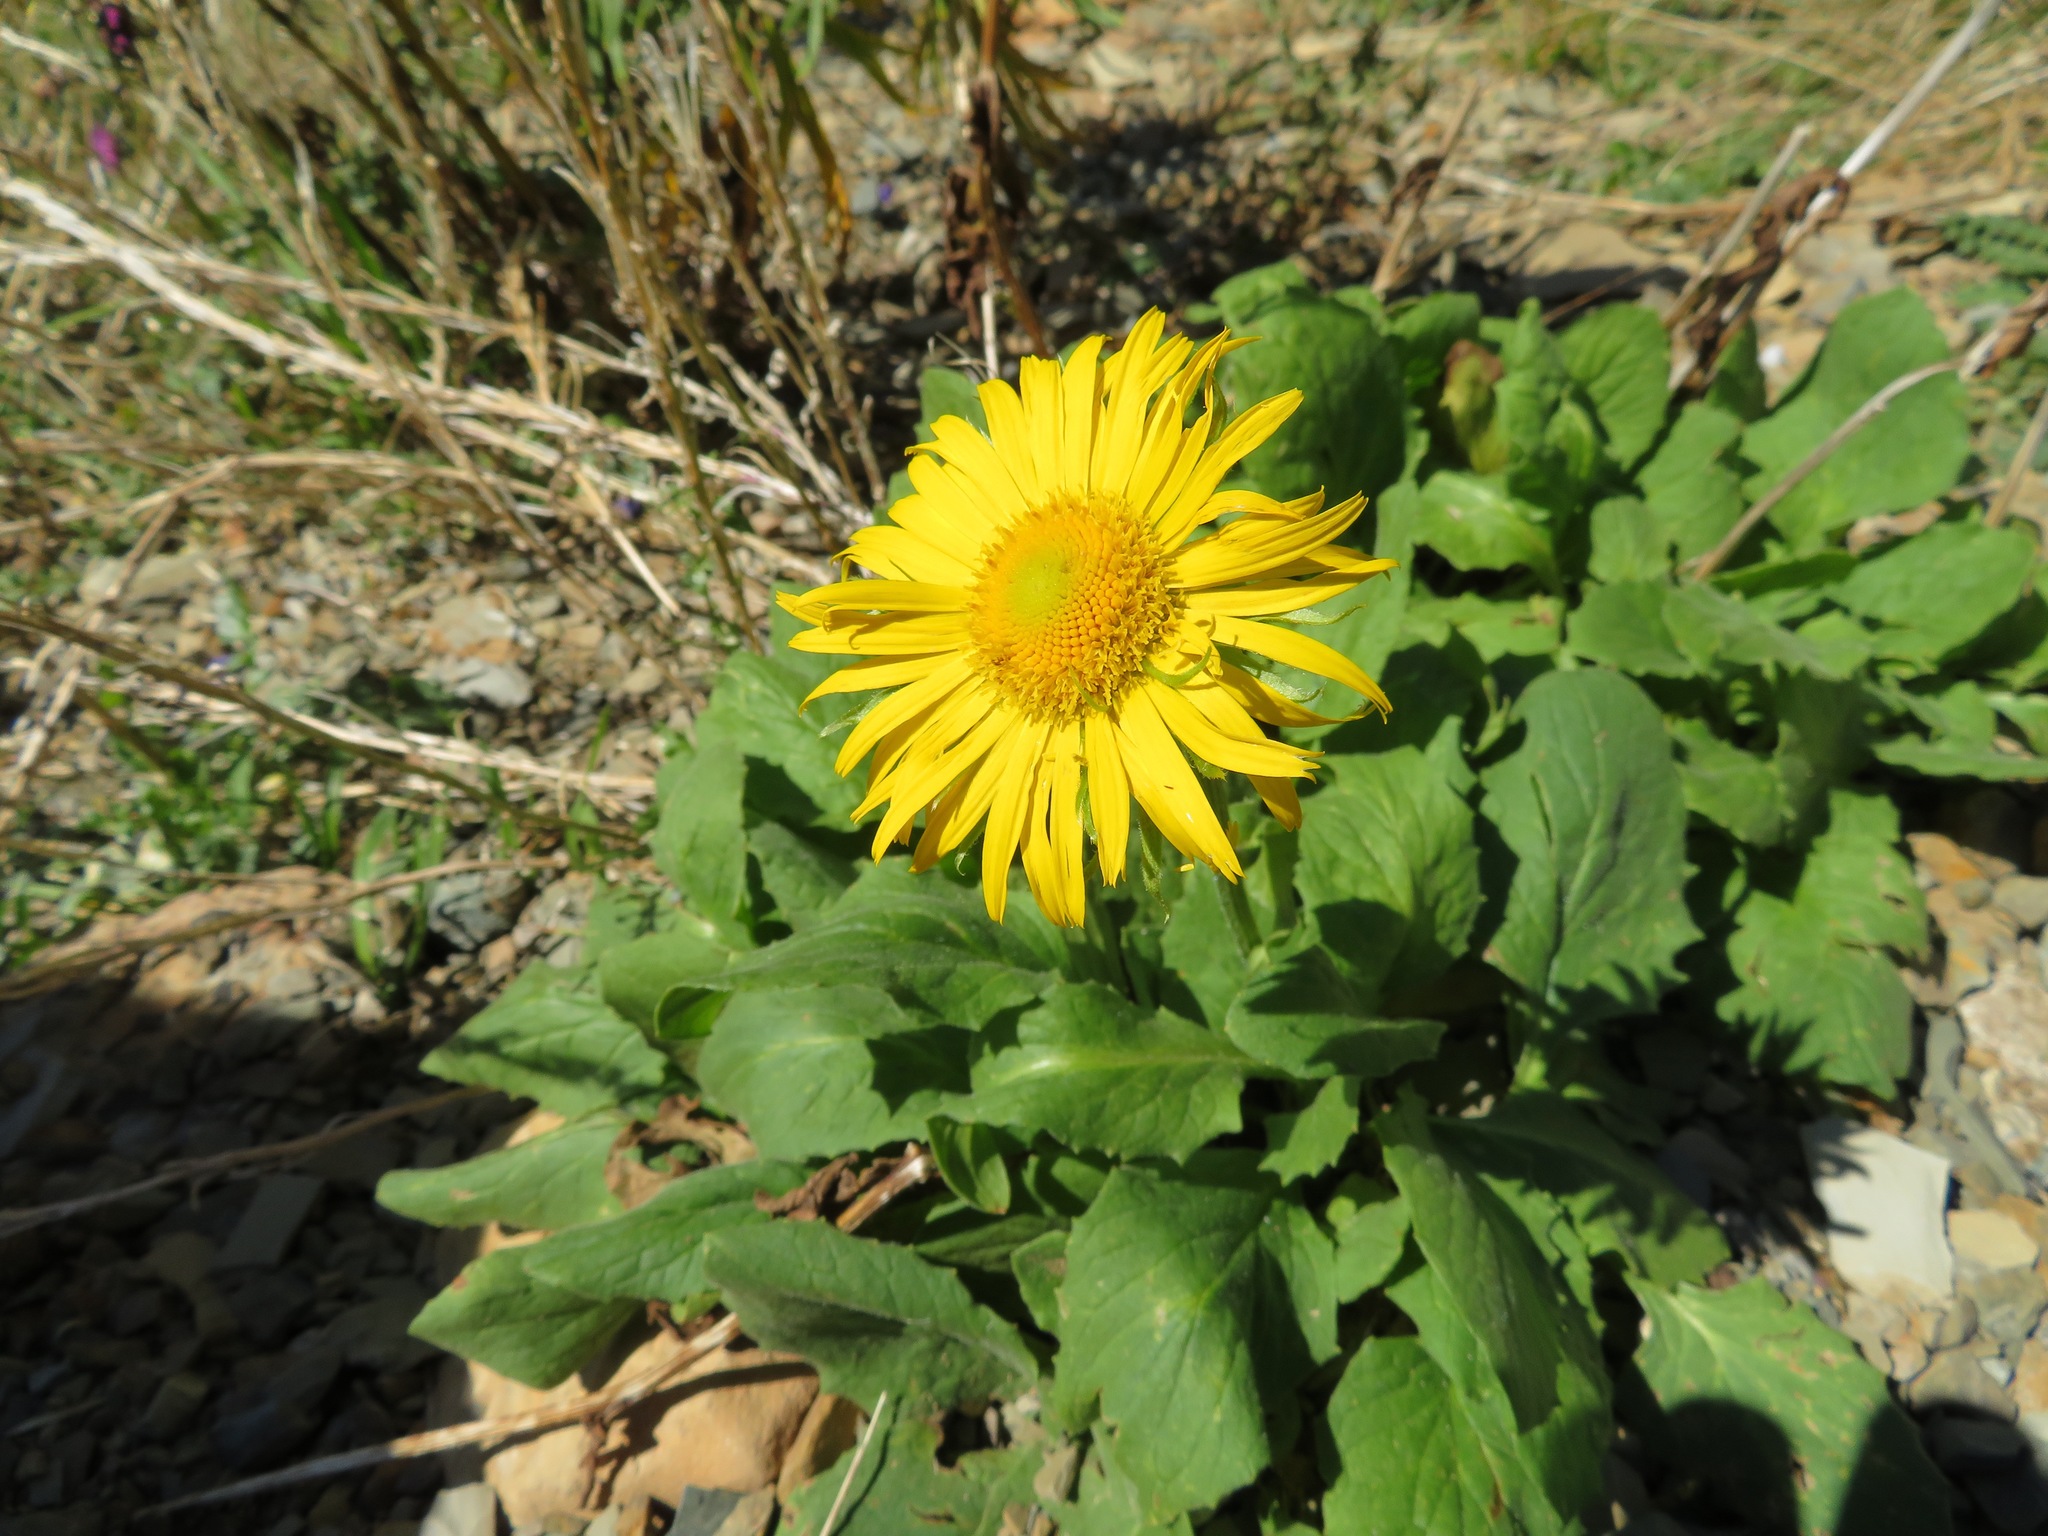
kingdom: Plantae
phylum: Tracheophyta
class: Magnoliopsida
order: Asterales
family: Asteraceae
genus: Doronicum
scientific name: Doronicum grandiflorum
